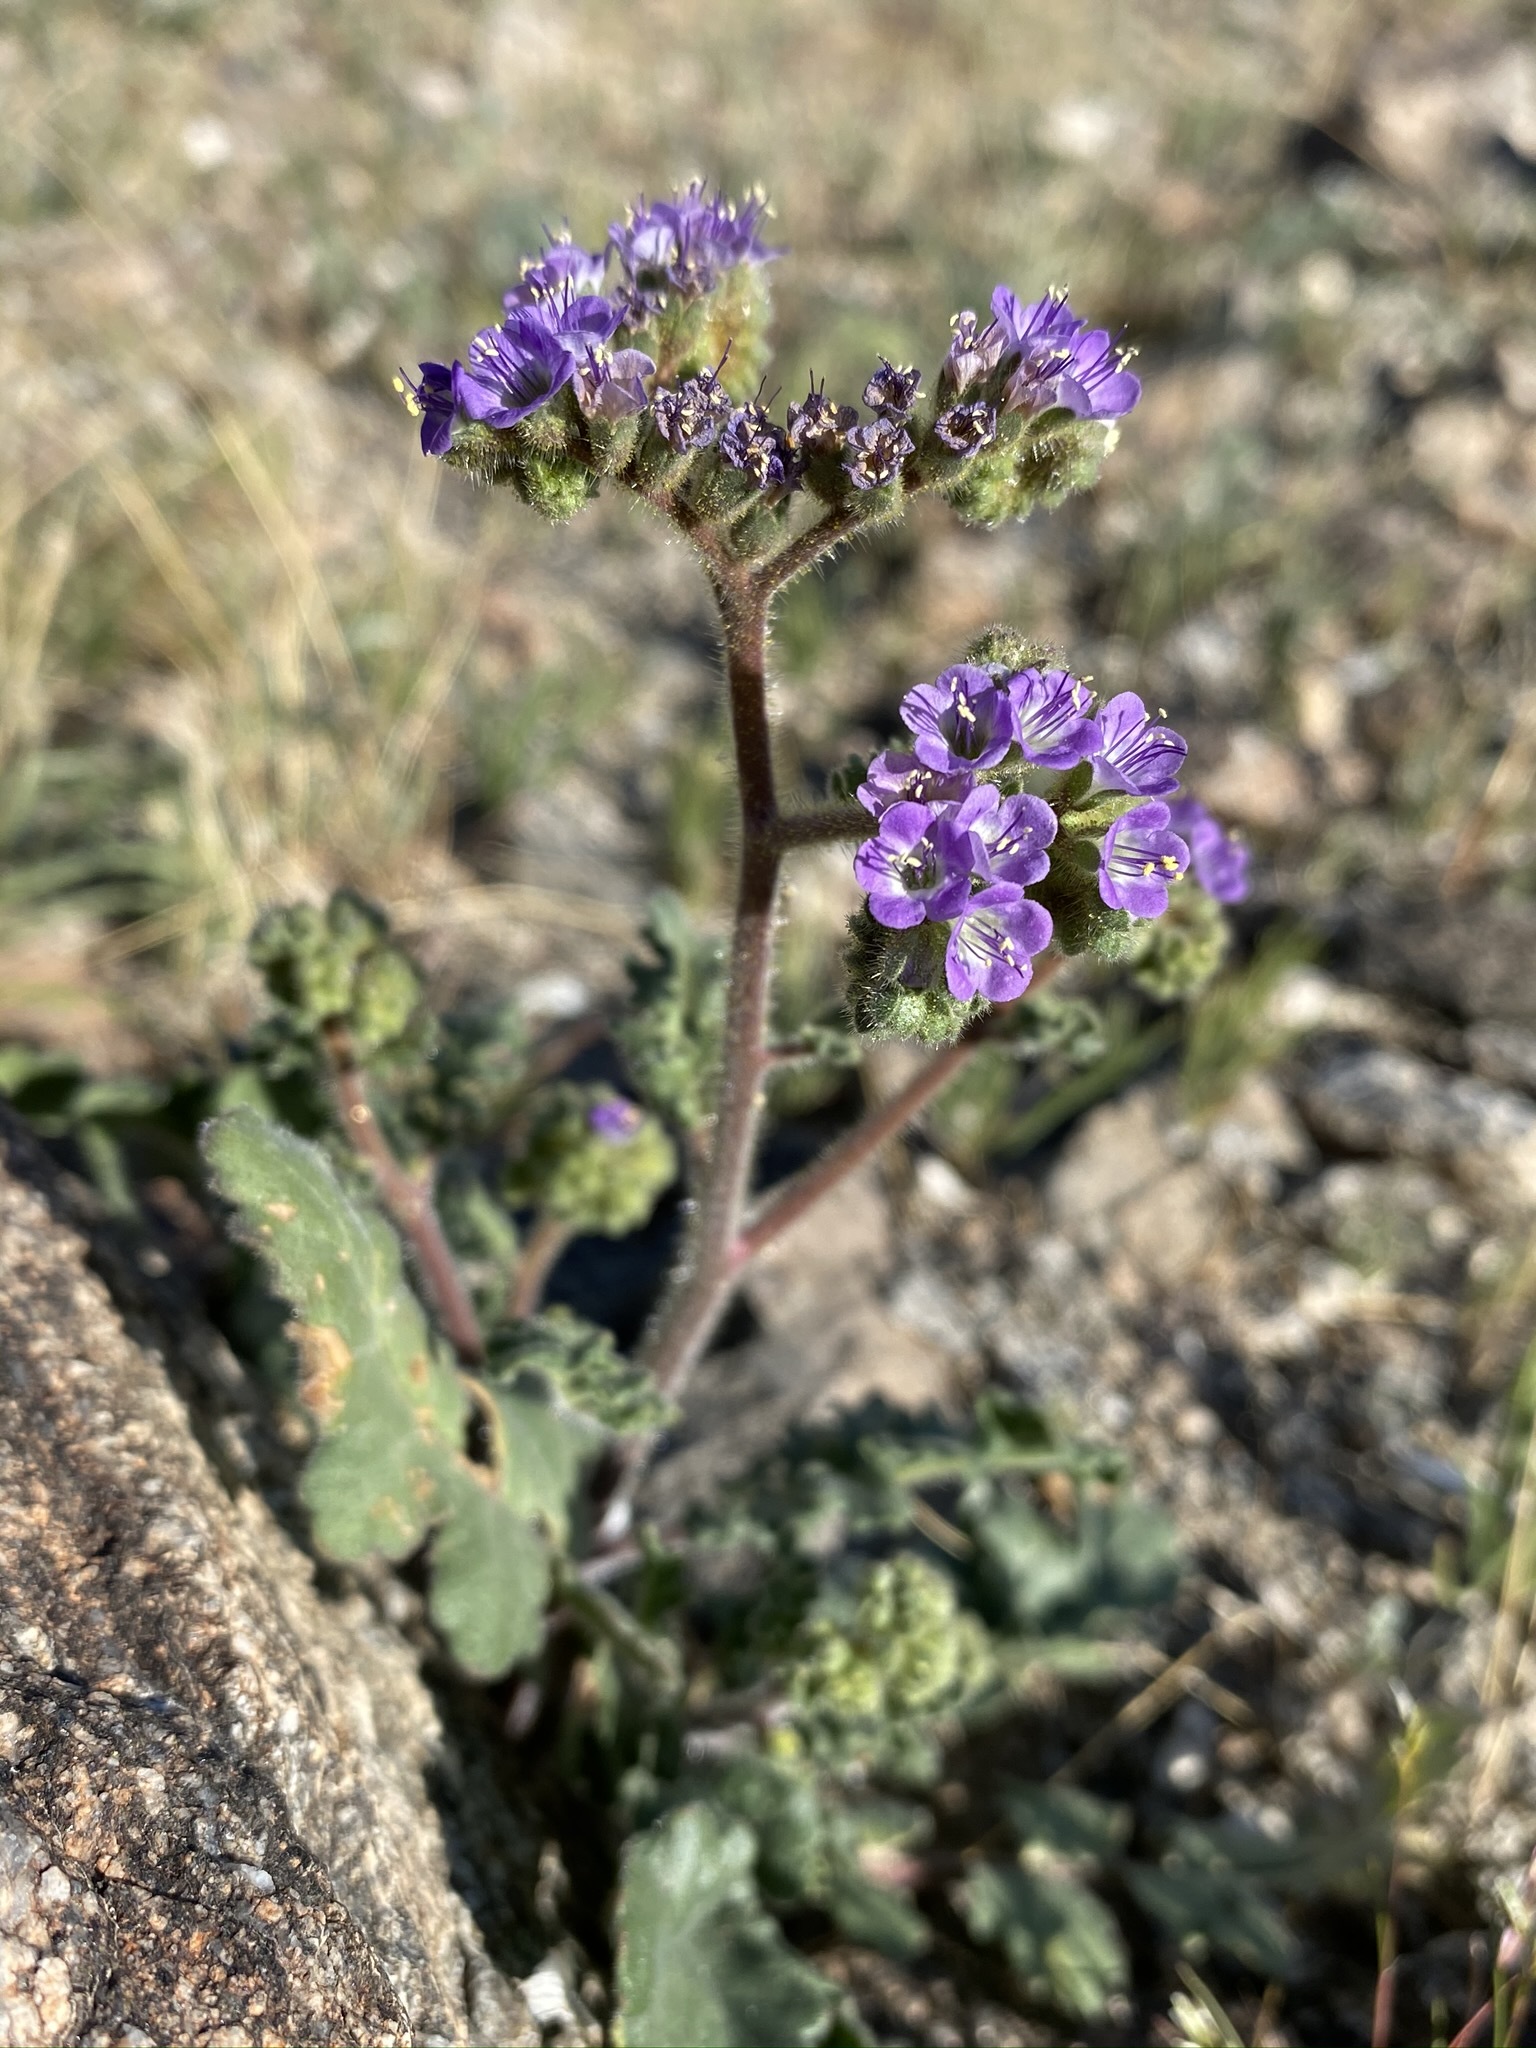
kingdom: Plantae
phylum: Tracheophyta
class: Magnoliopsida
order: Boraginales
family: Hydrophyllaceae
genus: Phacelia
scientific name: Phacelia minutiflora
